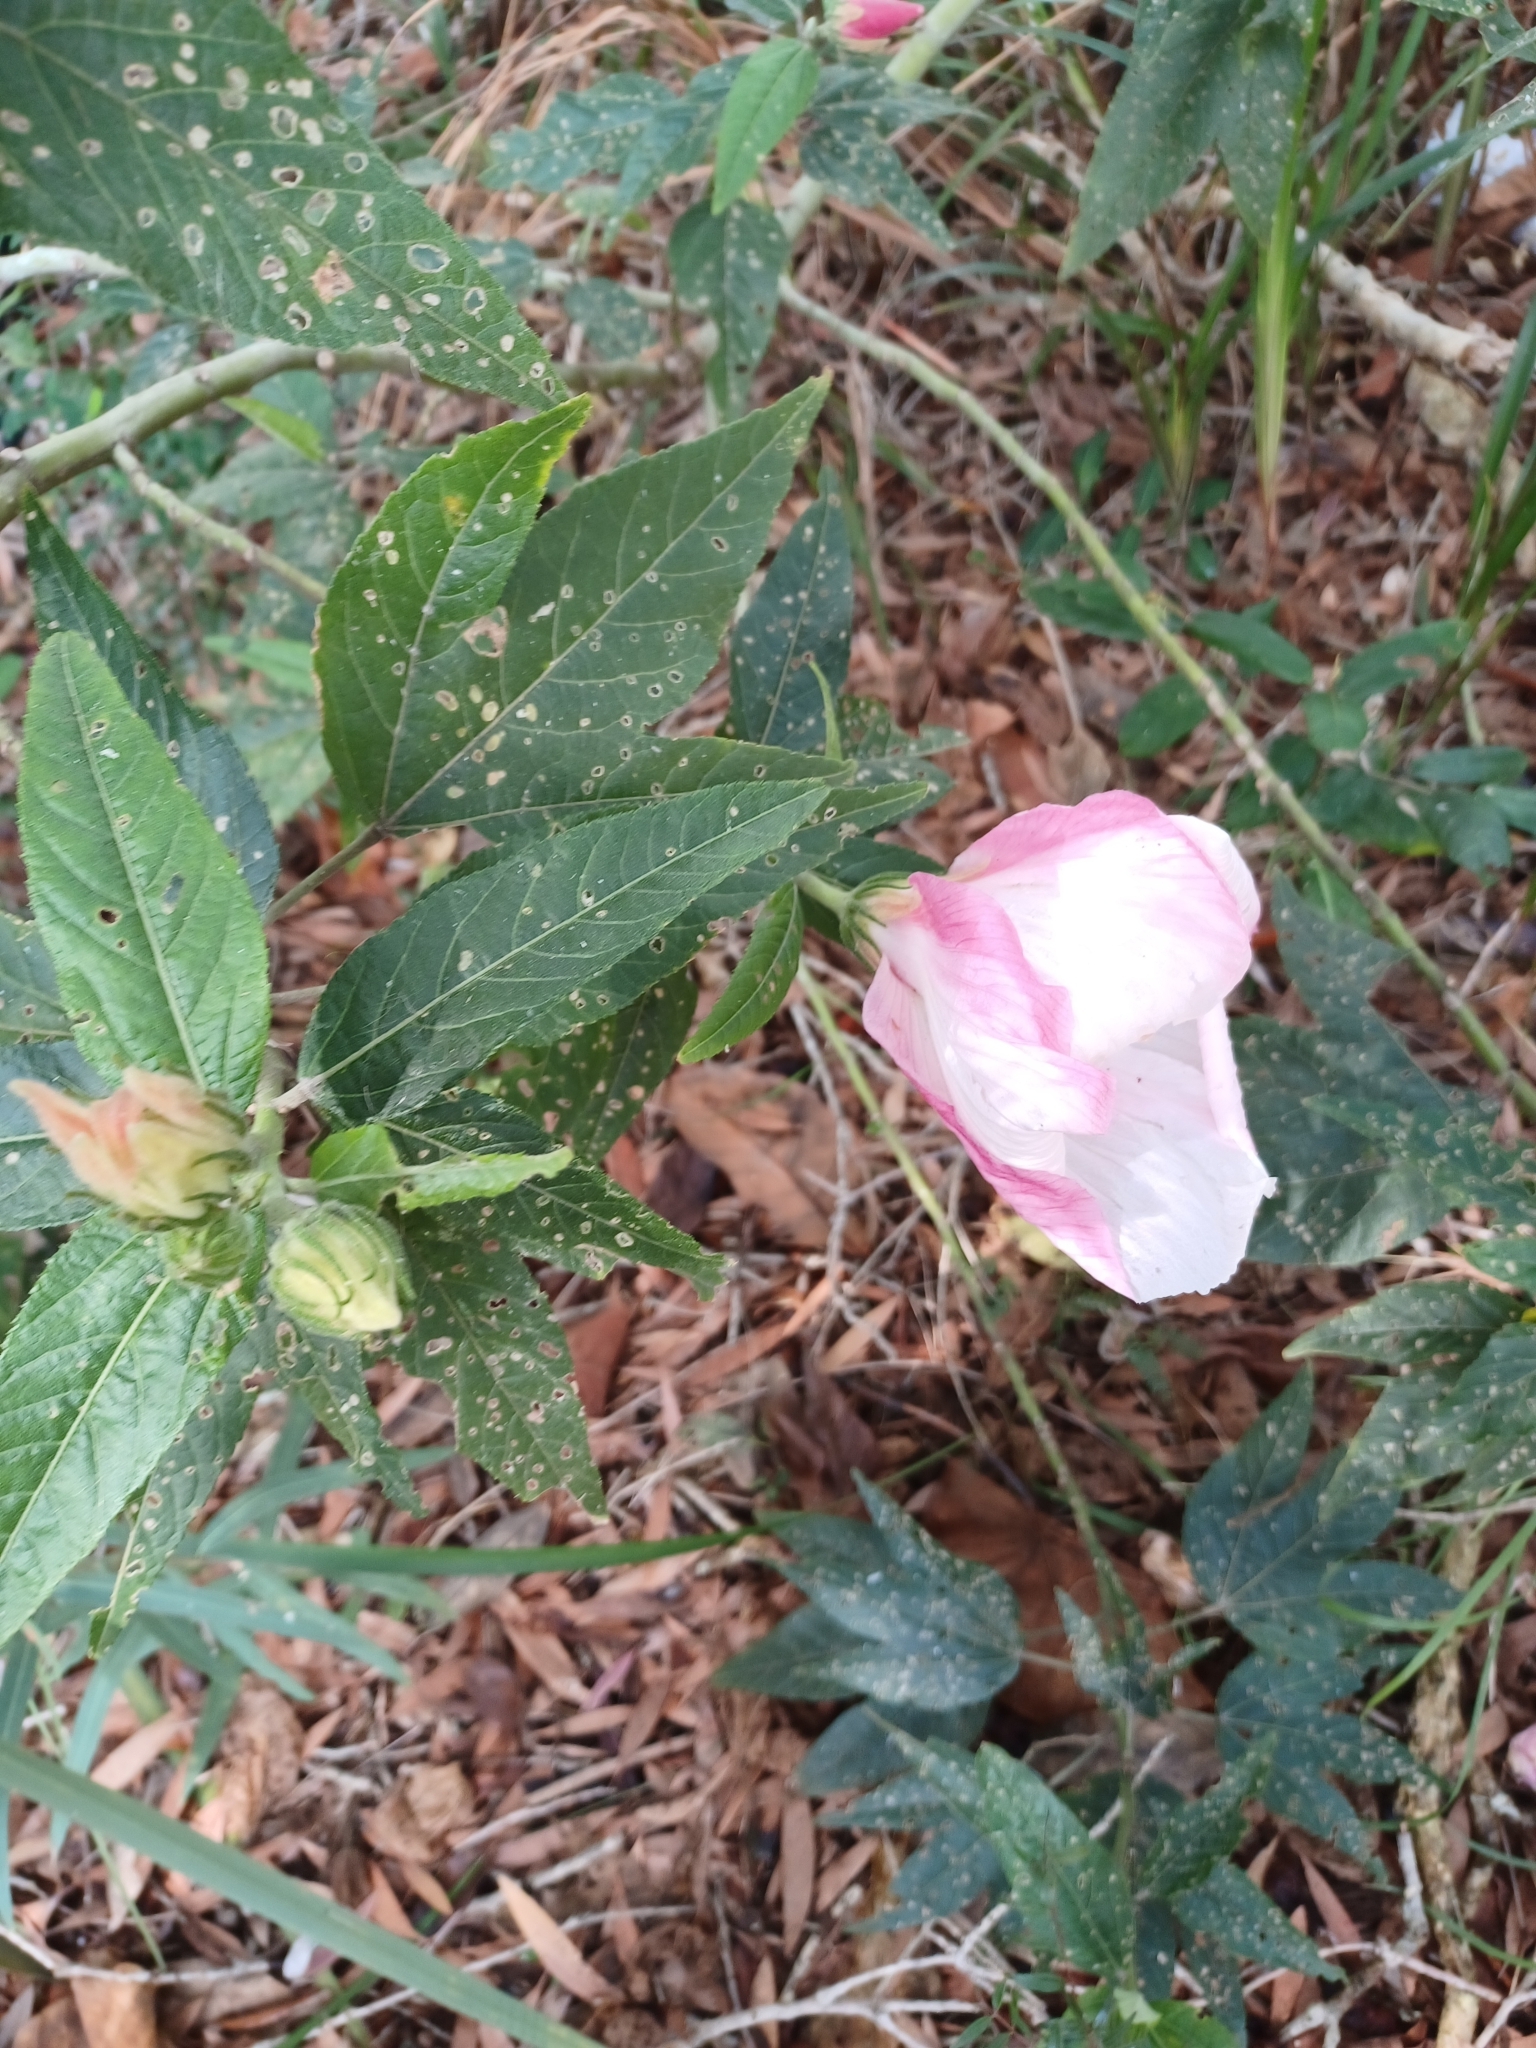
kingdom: Plantae
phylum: Tracheophyta
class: Magnoliopsida
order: Malvales
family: Malvaceae
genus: Hibiscus
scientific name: Hibiscus heterophyllus
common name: Queensland-sorrel
